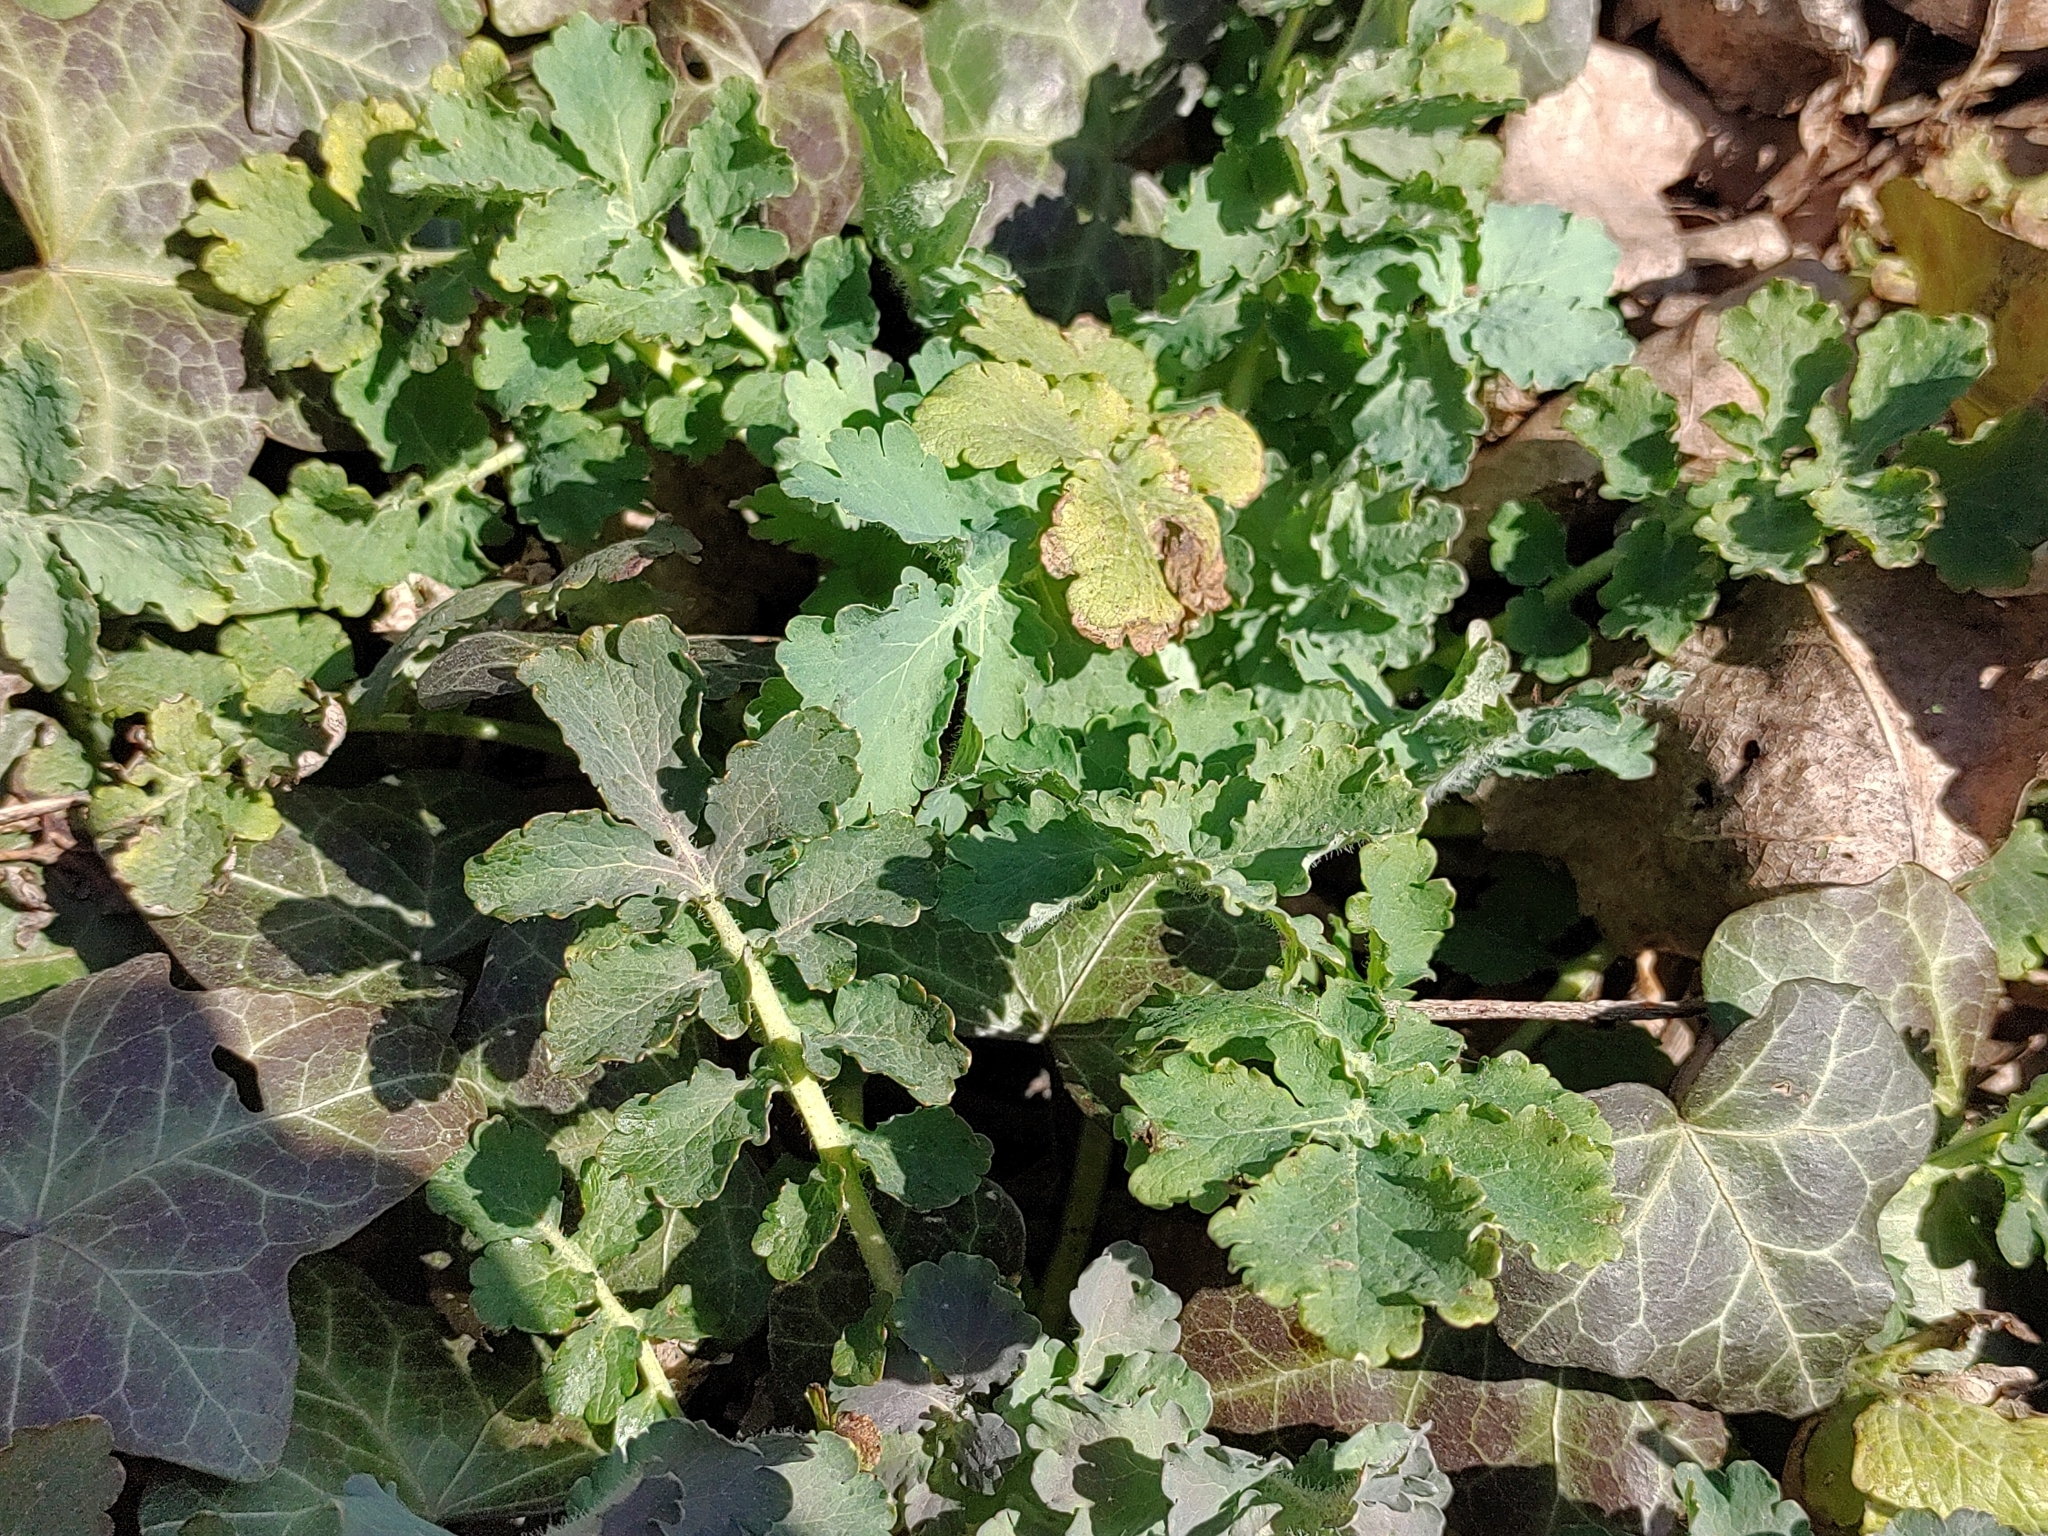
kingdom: Plantae
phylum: Tracheophyta
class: Magnoliopsida
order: Ranunculales
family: Papaveraceae
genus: Chelidonium
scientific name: Chelidonium majus
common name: Greater celandine
